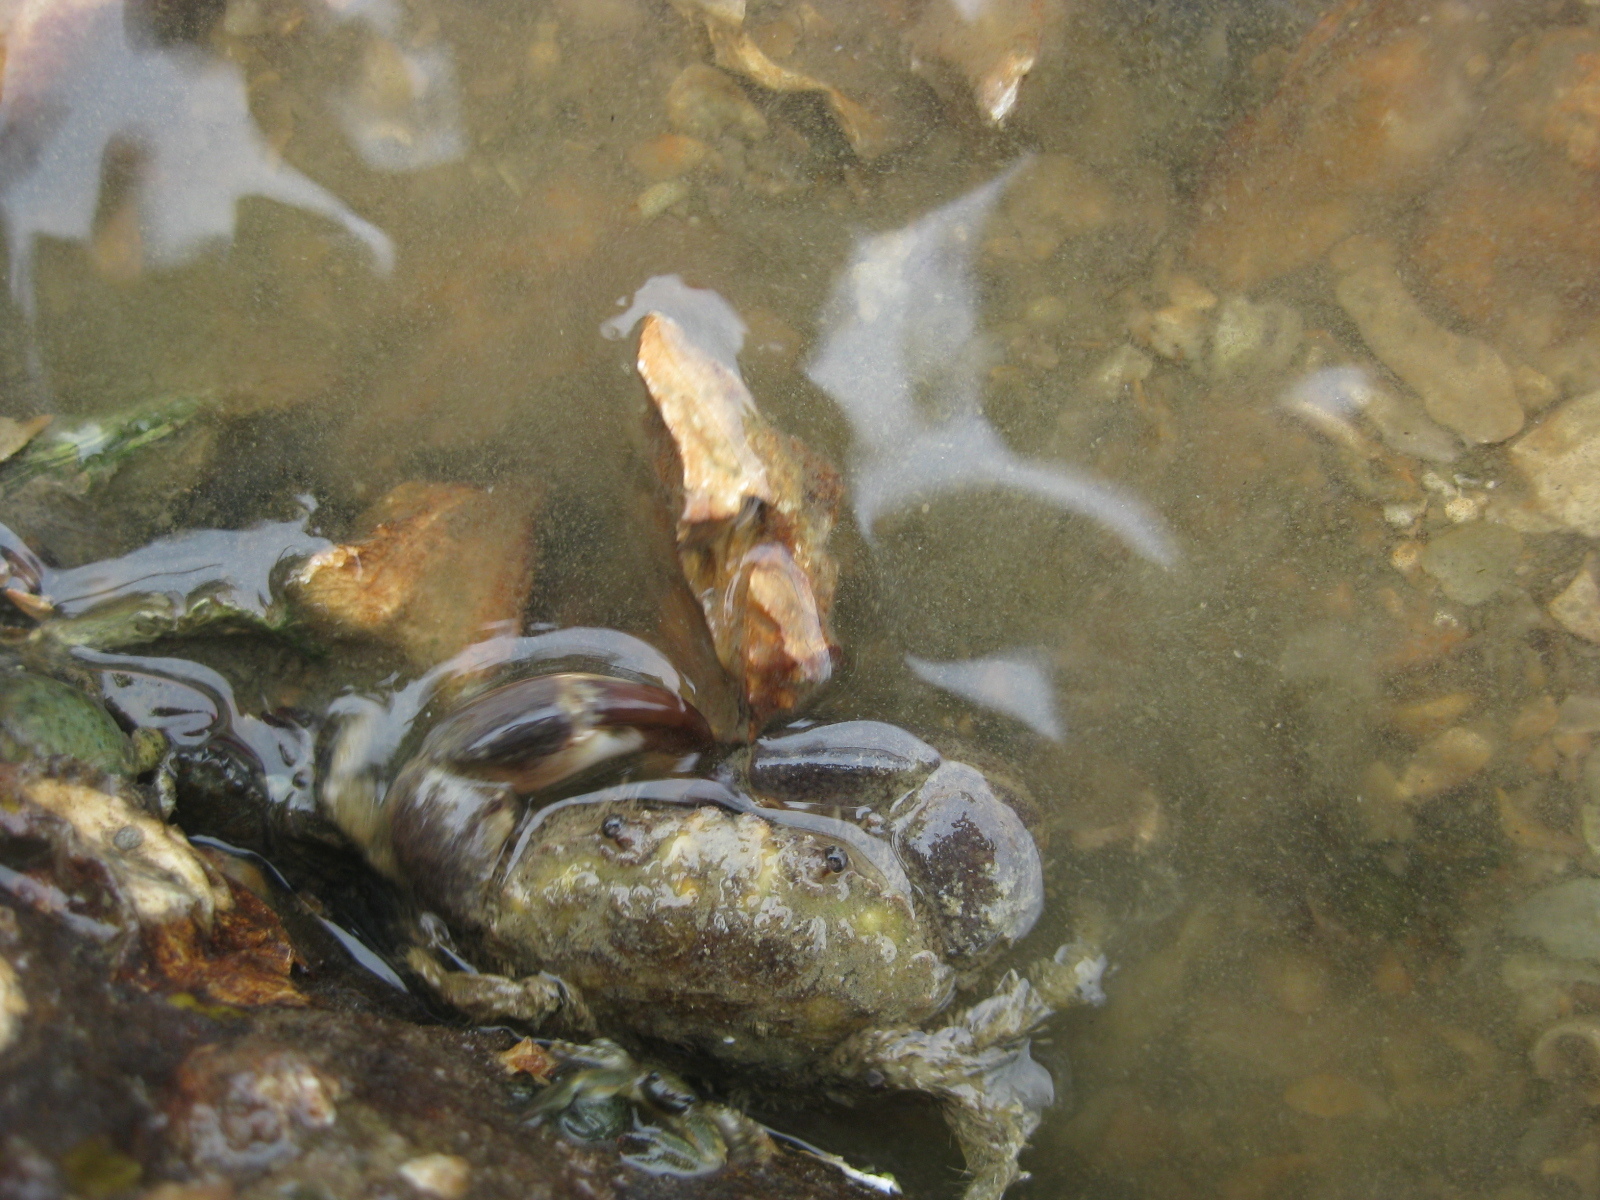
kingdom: Animalia
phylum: Arthropoda
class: Malacostraca
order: Decapoda
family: Pilumnidae
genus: Pilumnopeus
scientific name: Pilumnopeus serratifrons
